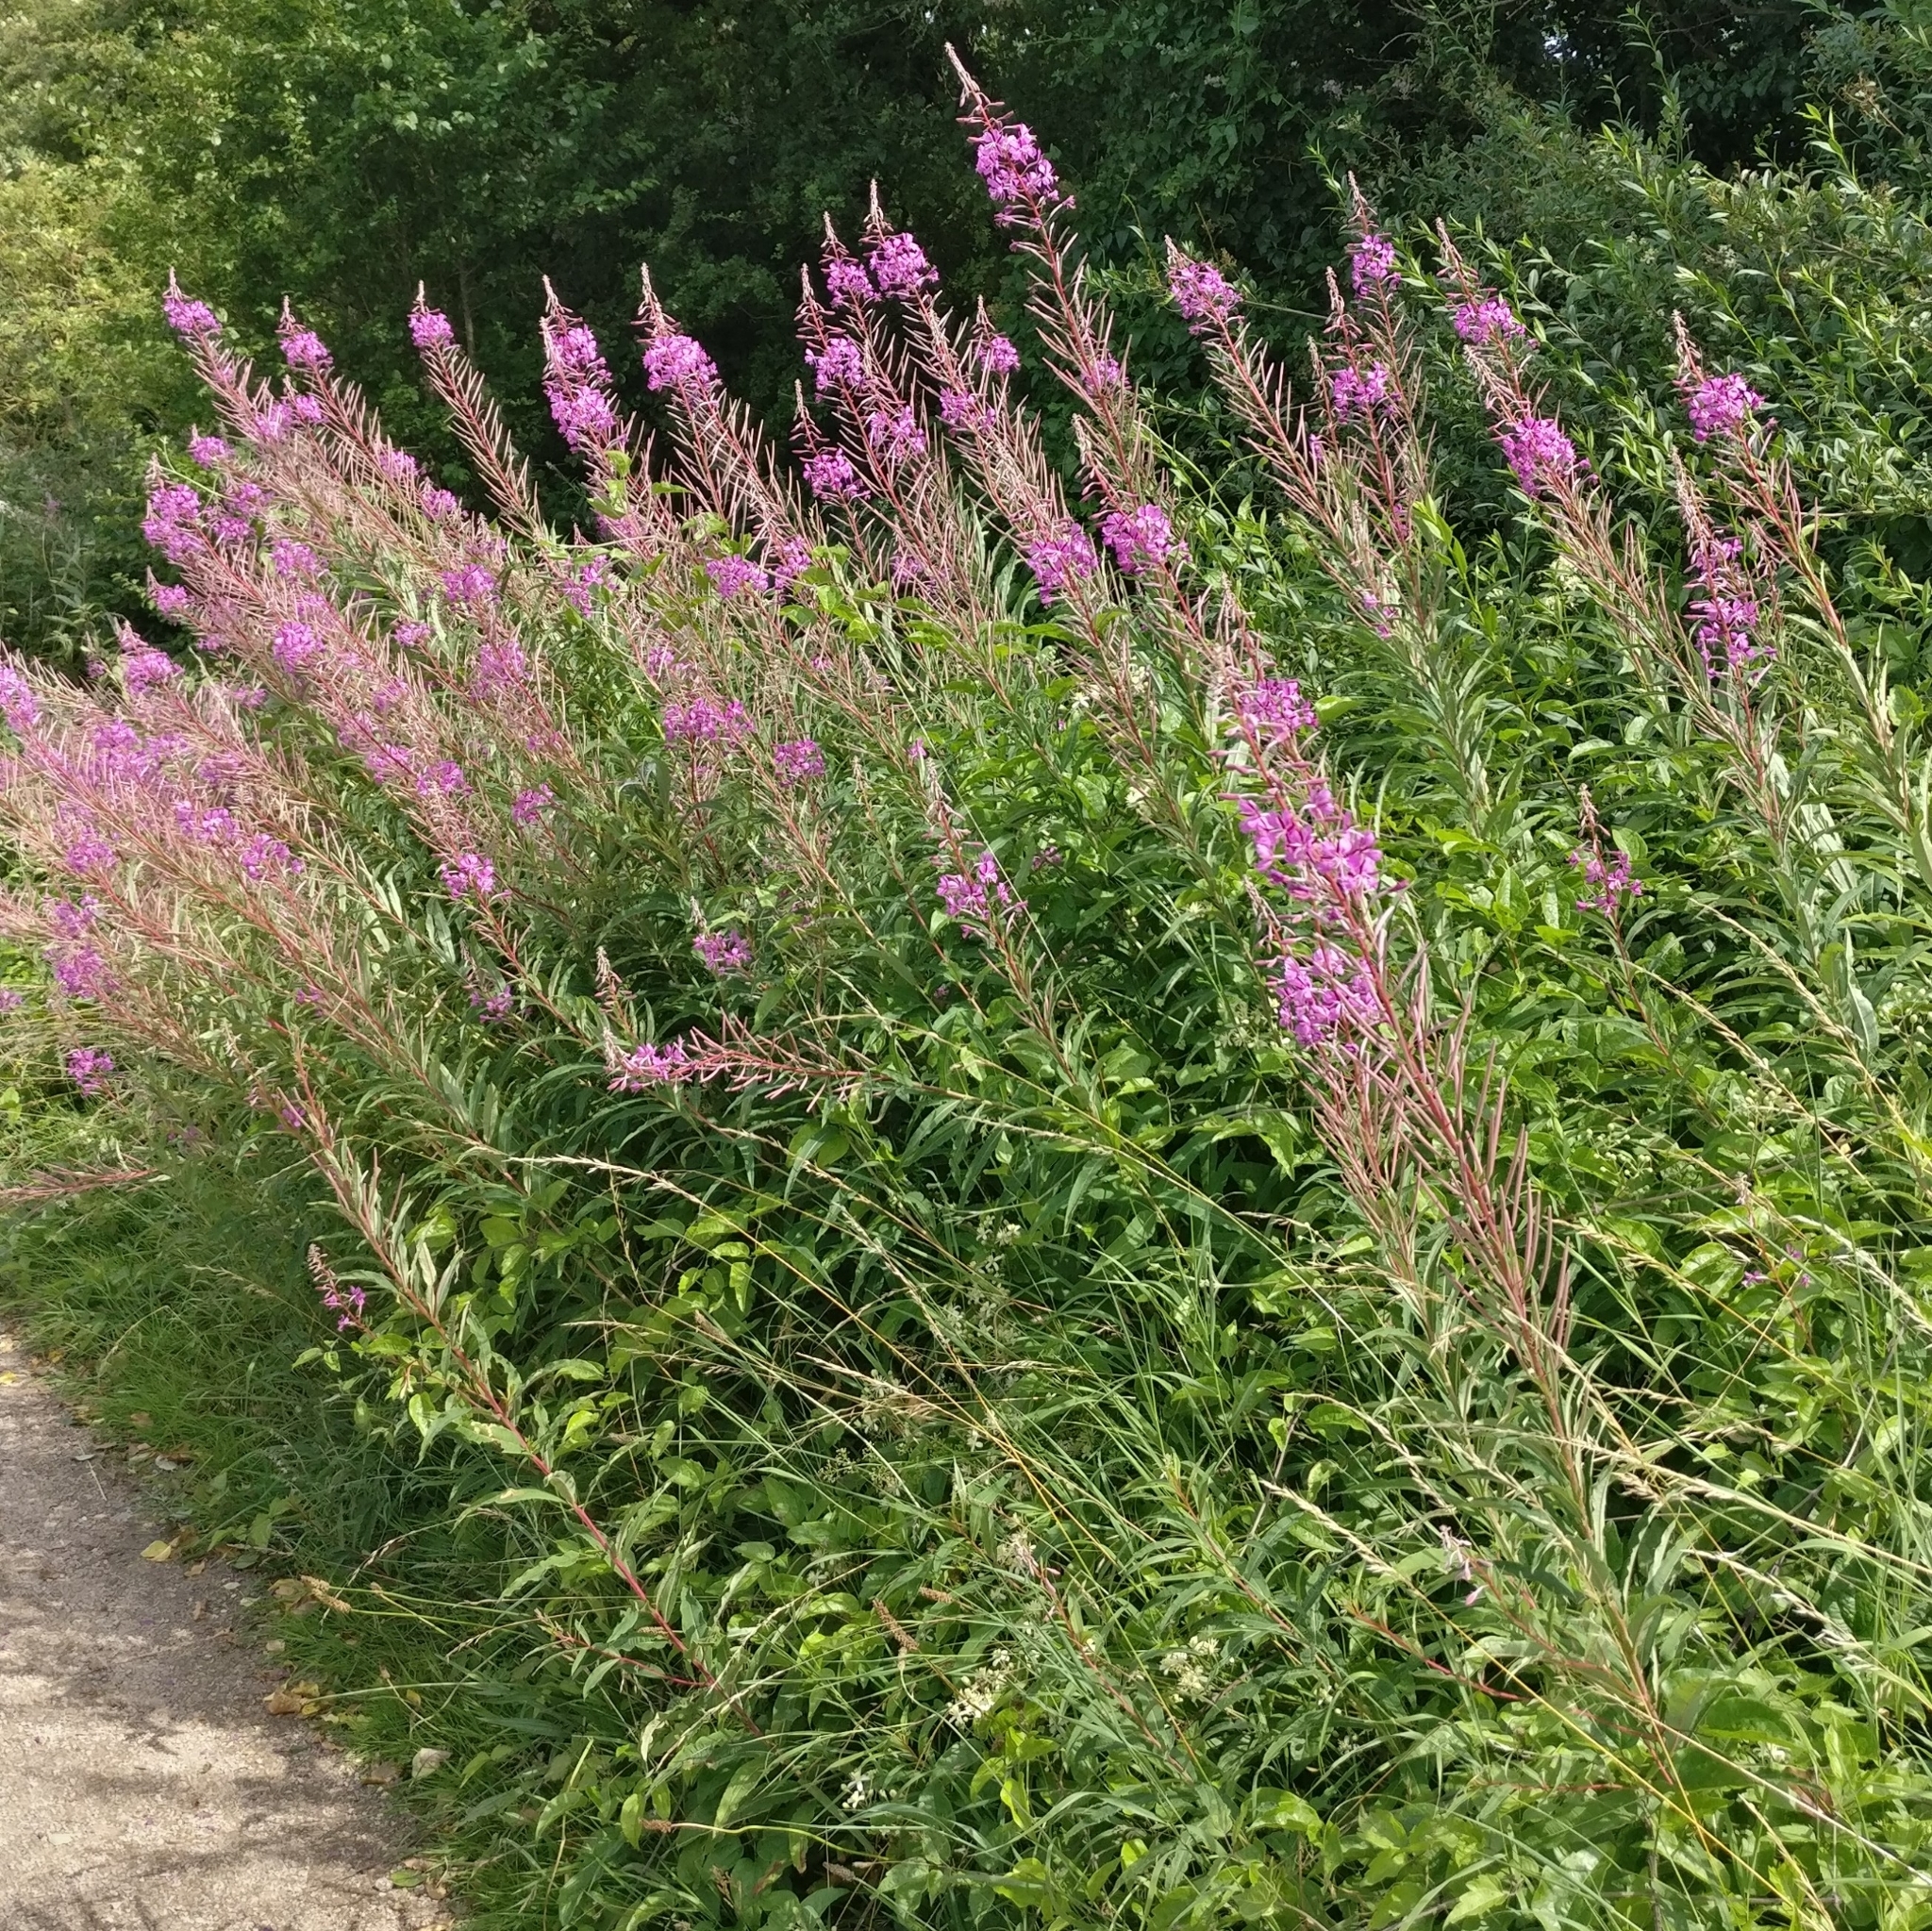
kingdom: Plantae
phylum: Tracheophyta
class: Magnoliopsida
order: Myrtales
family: Onagraceae
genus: Chamaenerion
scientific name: Chamaenerion angustifolium
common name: Fireweed
